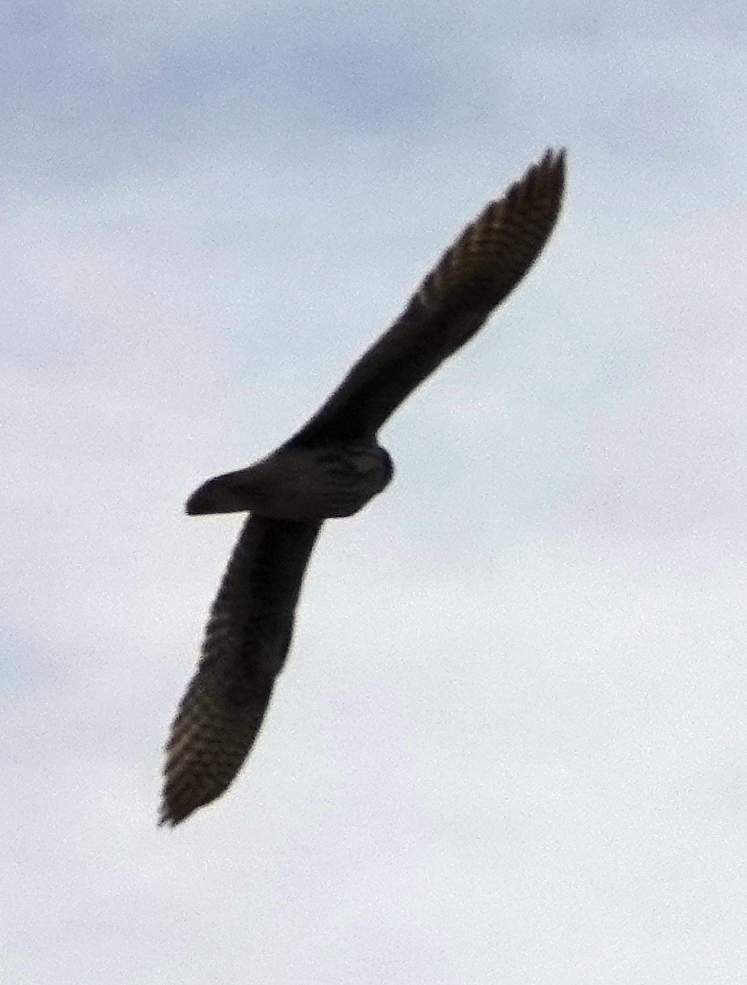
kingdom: Animalia
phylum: Chordata
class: Aves
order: Falconiformes
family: Falconidae
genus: Falco
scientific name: Falco mexicanus
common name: Prairie falcon
